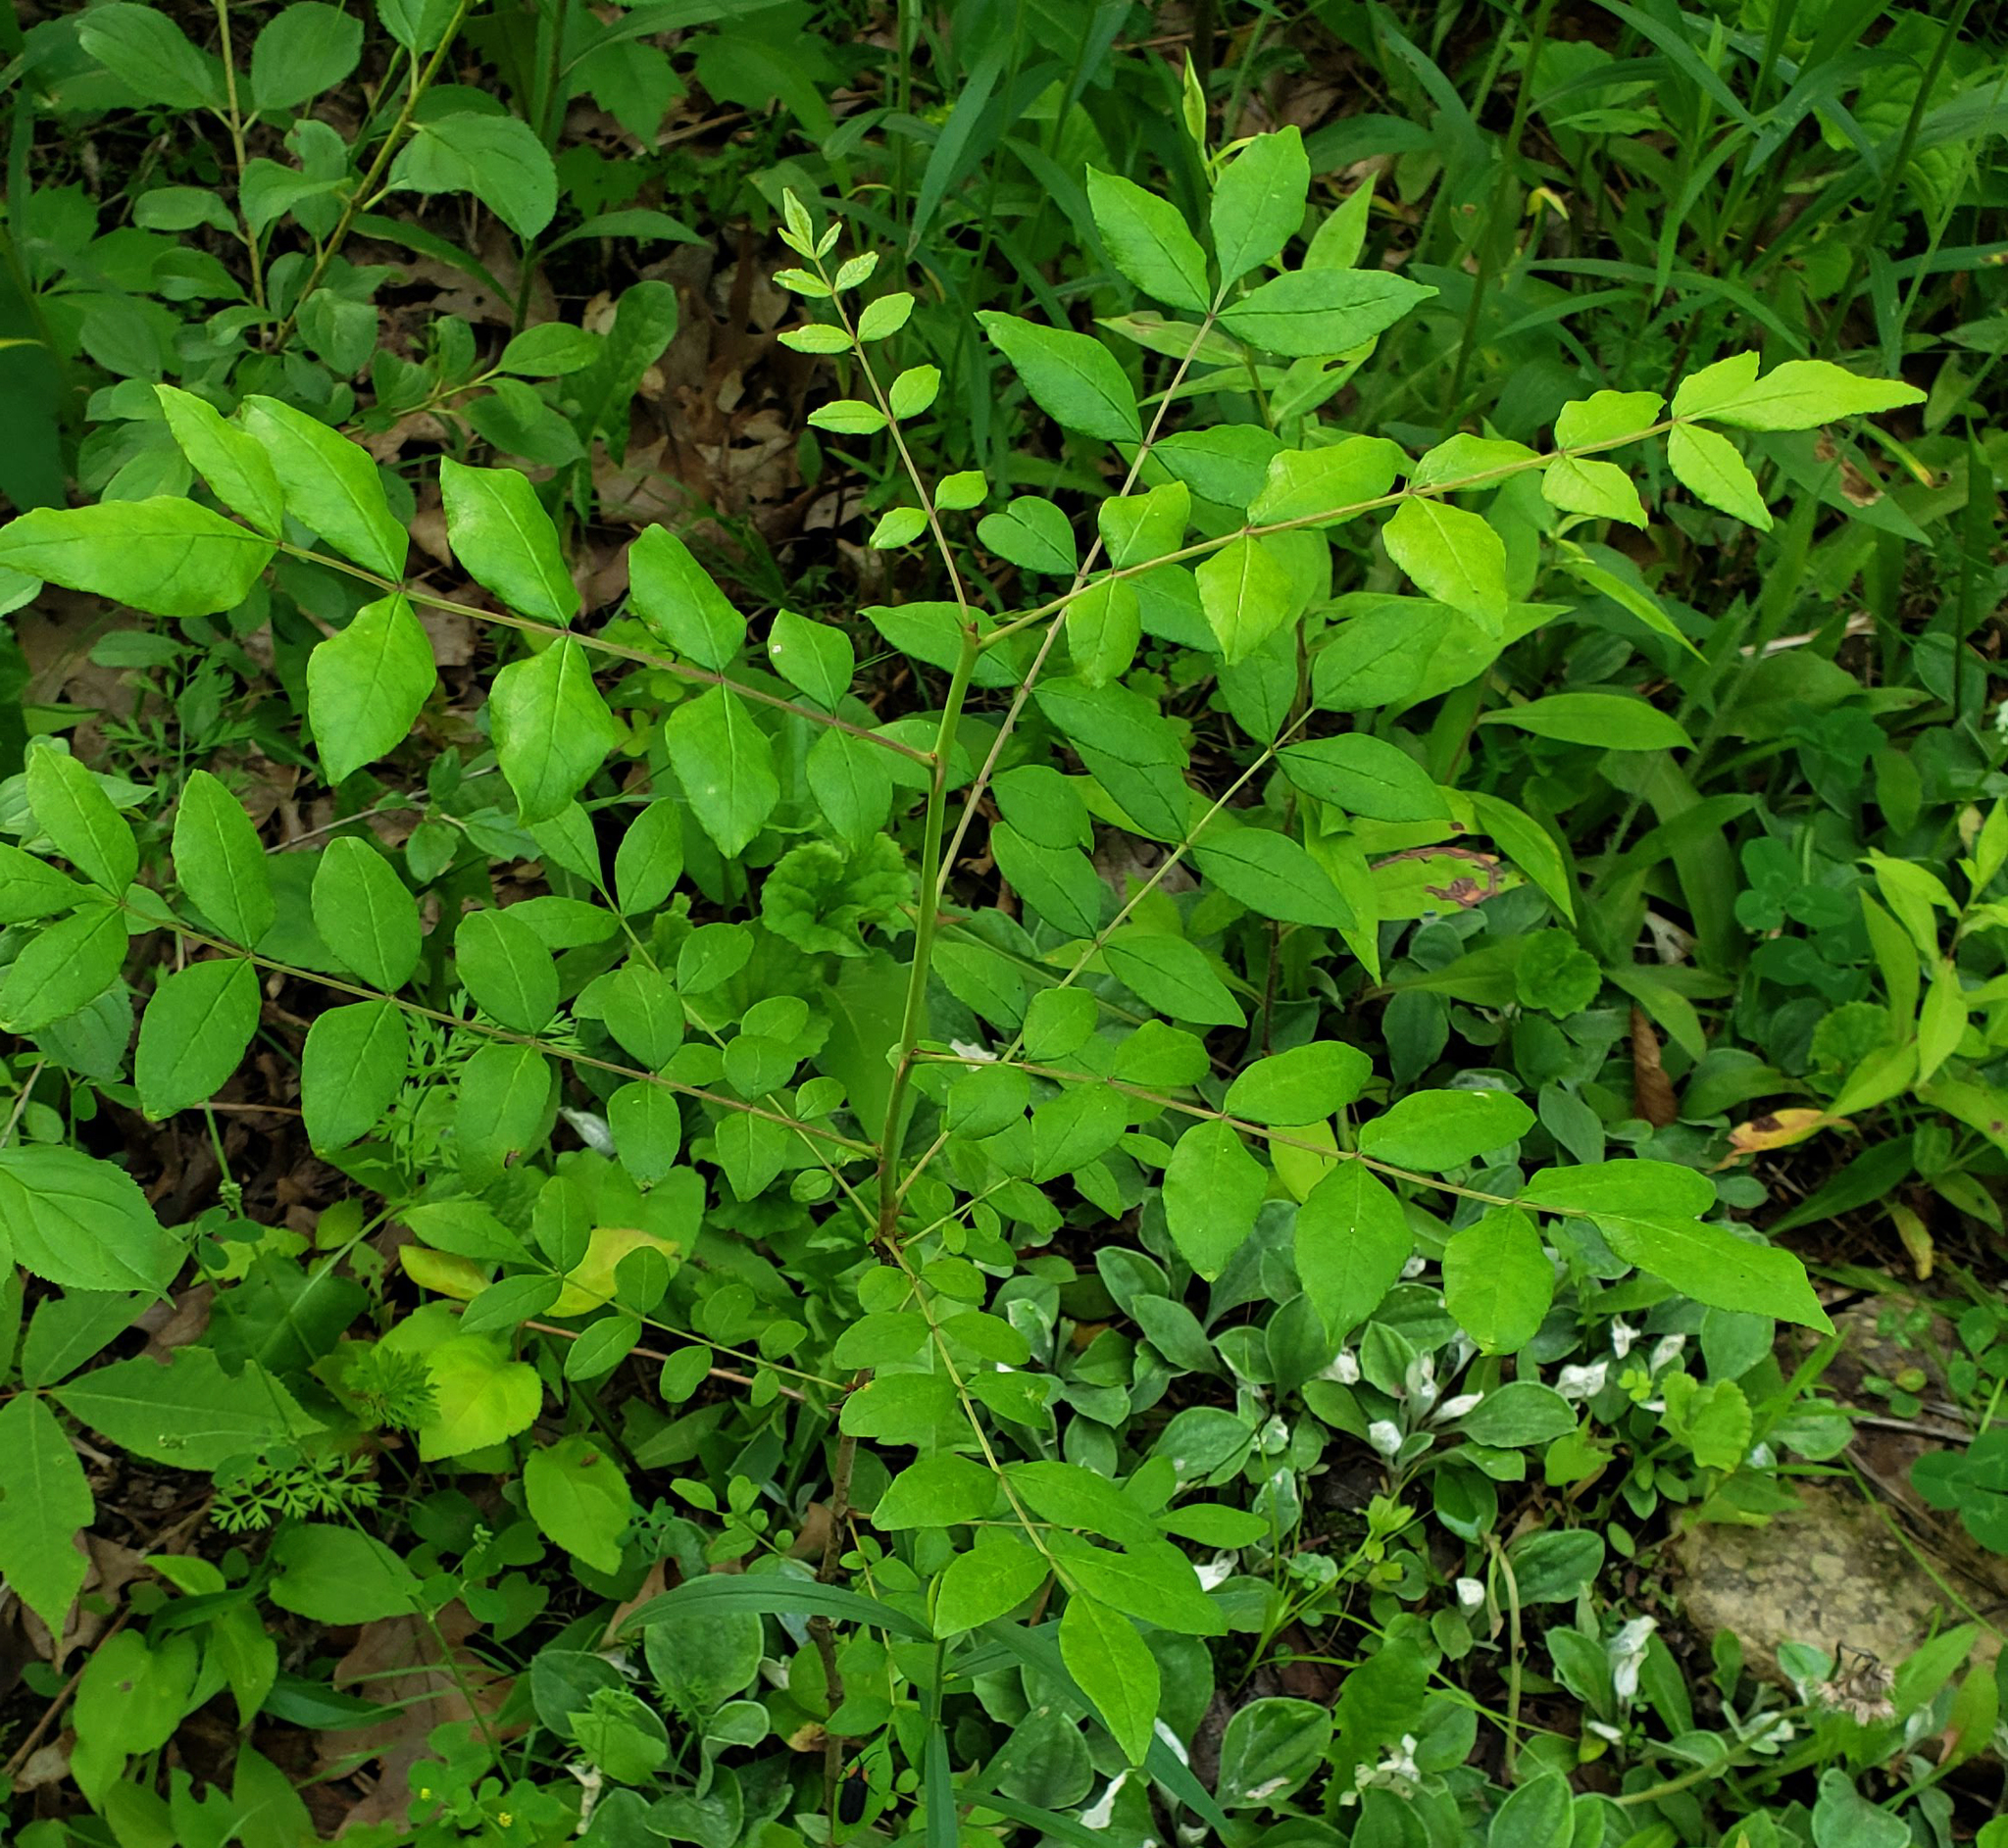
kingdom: Plantae
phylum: Tracheophyta
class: Magnoliopsida
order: Sapindales
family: Rutaceae
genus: Zanthoxylum
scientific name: Zanthoxylum americanum
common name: Northern prickly-ash
